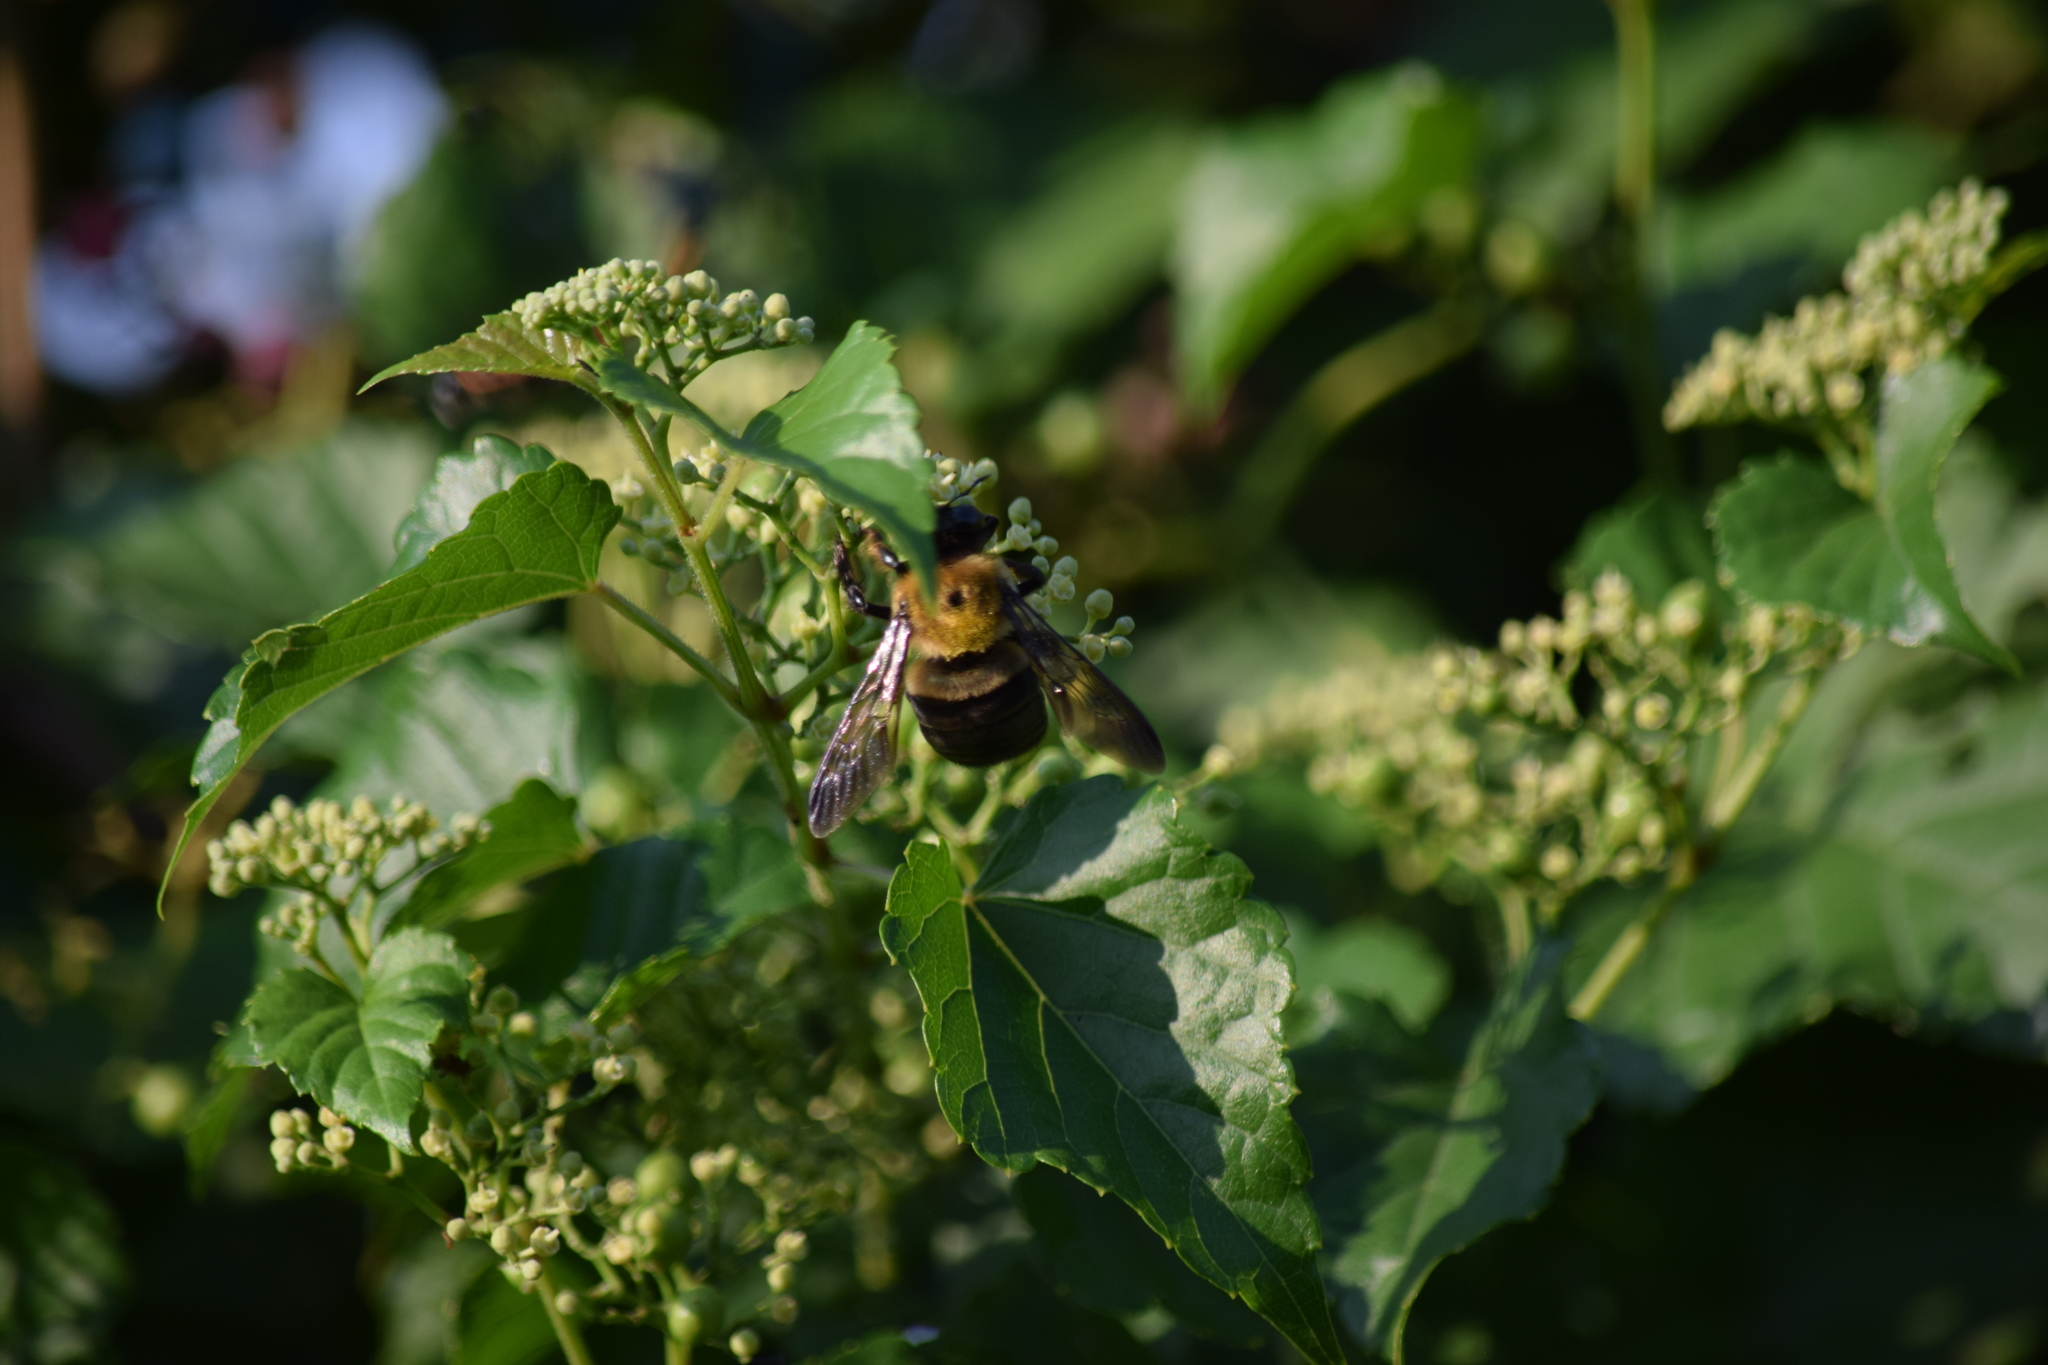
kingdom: Animalia
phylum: Arthropoda
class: Insecta
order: Hymenoptera
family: Apidae
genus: Xylocopa
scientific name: Xylocopa virginica
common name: Carpenter bee
